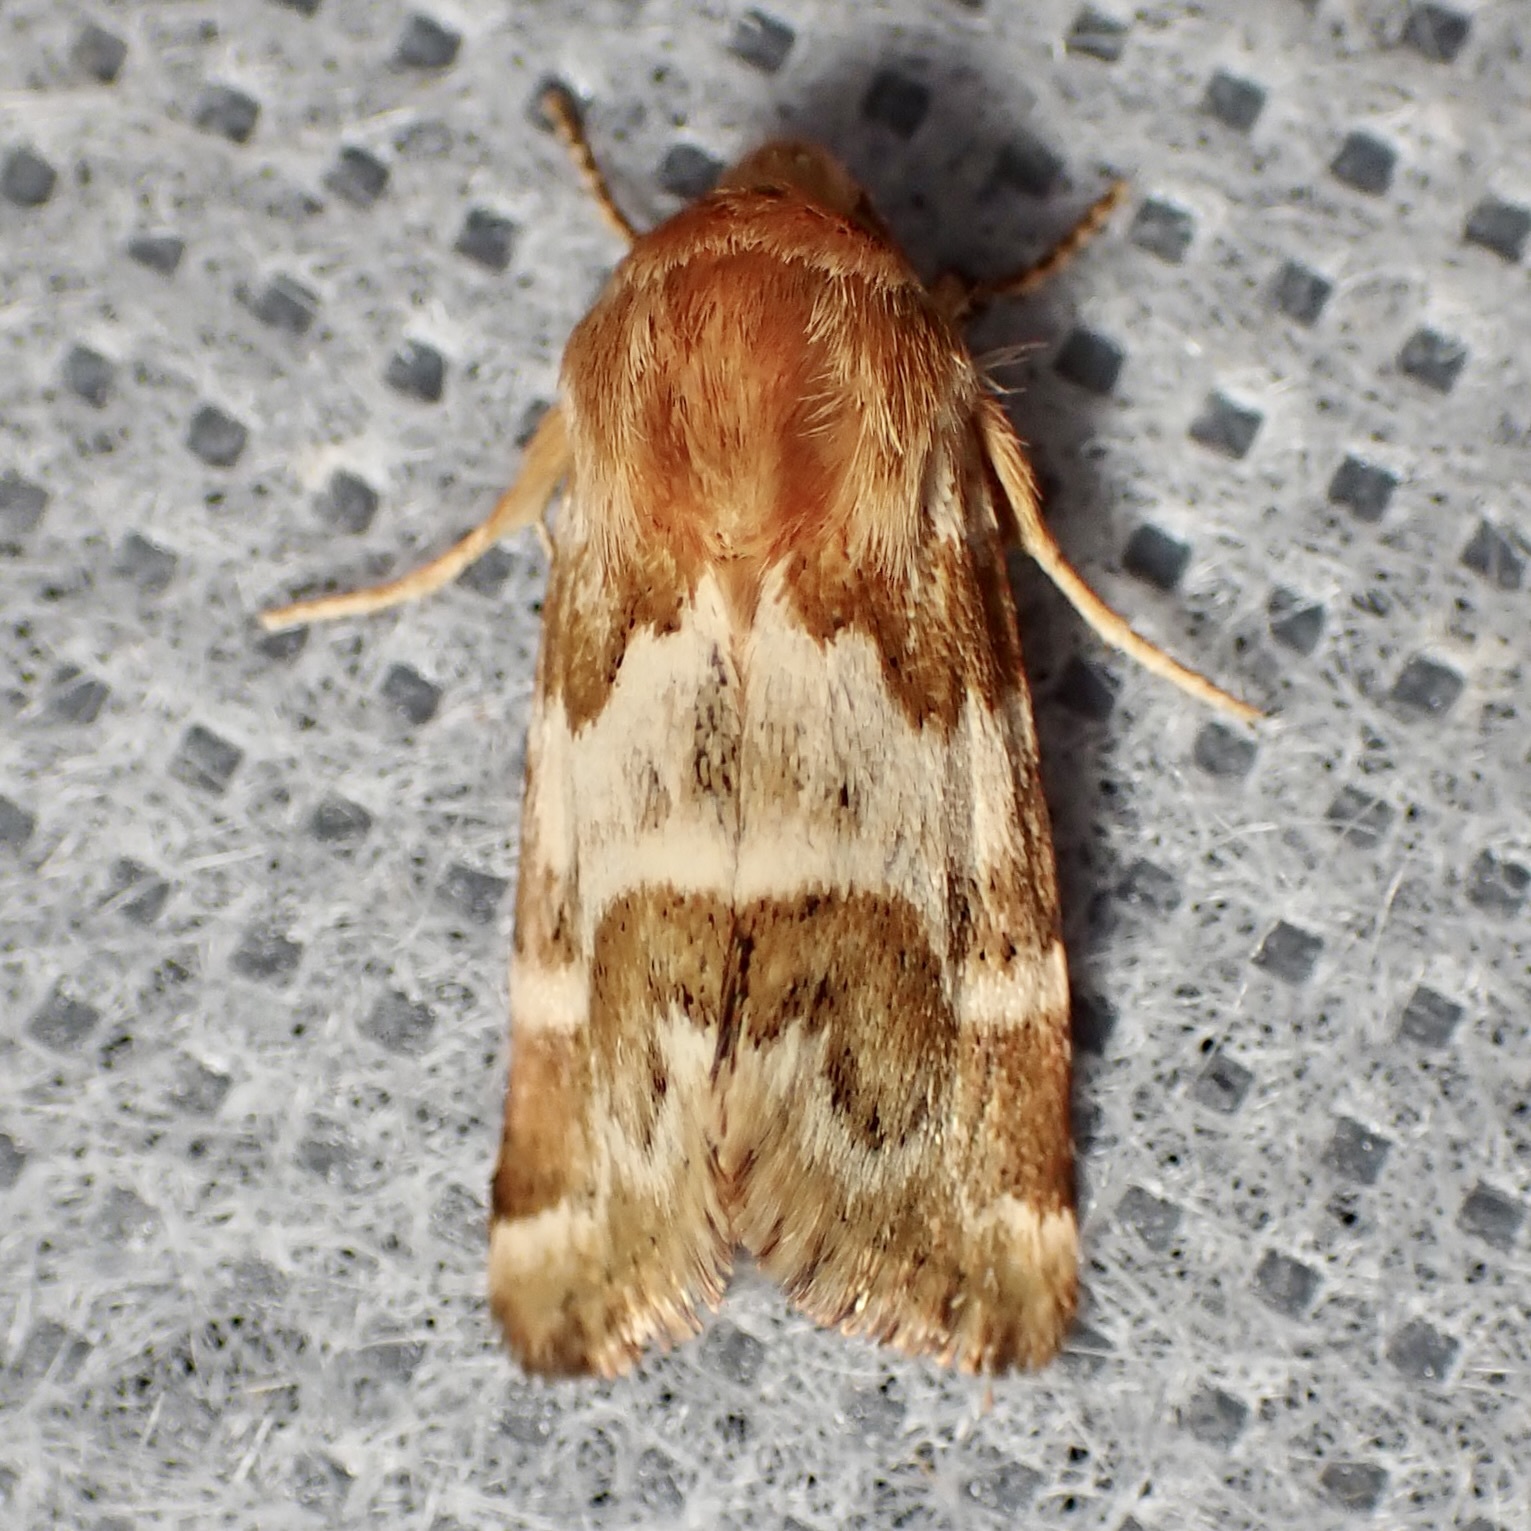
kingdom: Animalia
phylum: Arthropoda
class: Insecta
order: Lepidoptera
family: Noctuidae
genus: Schinia
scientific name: Schinia errans
